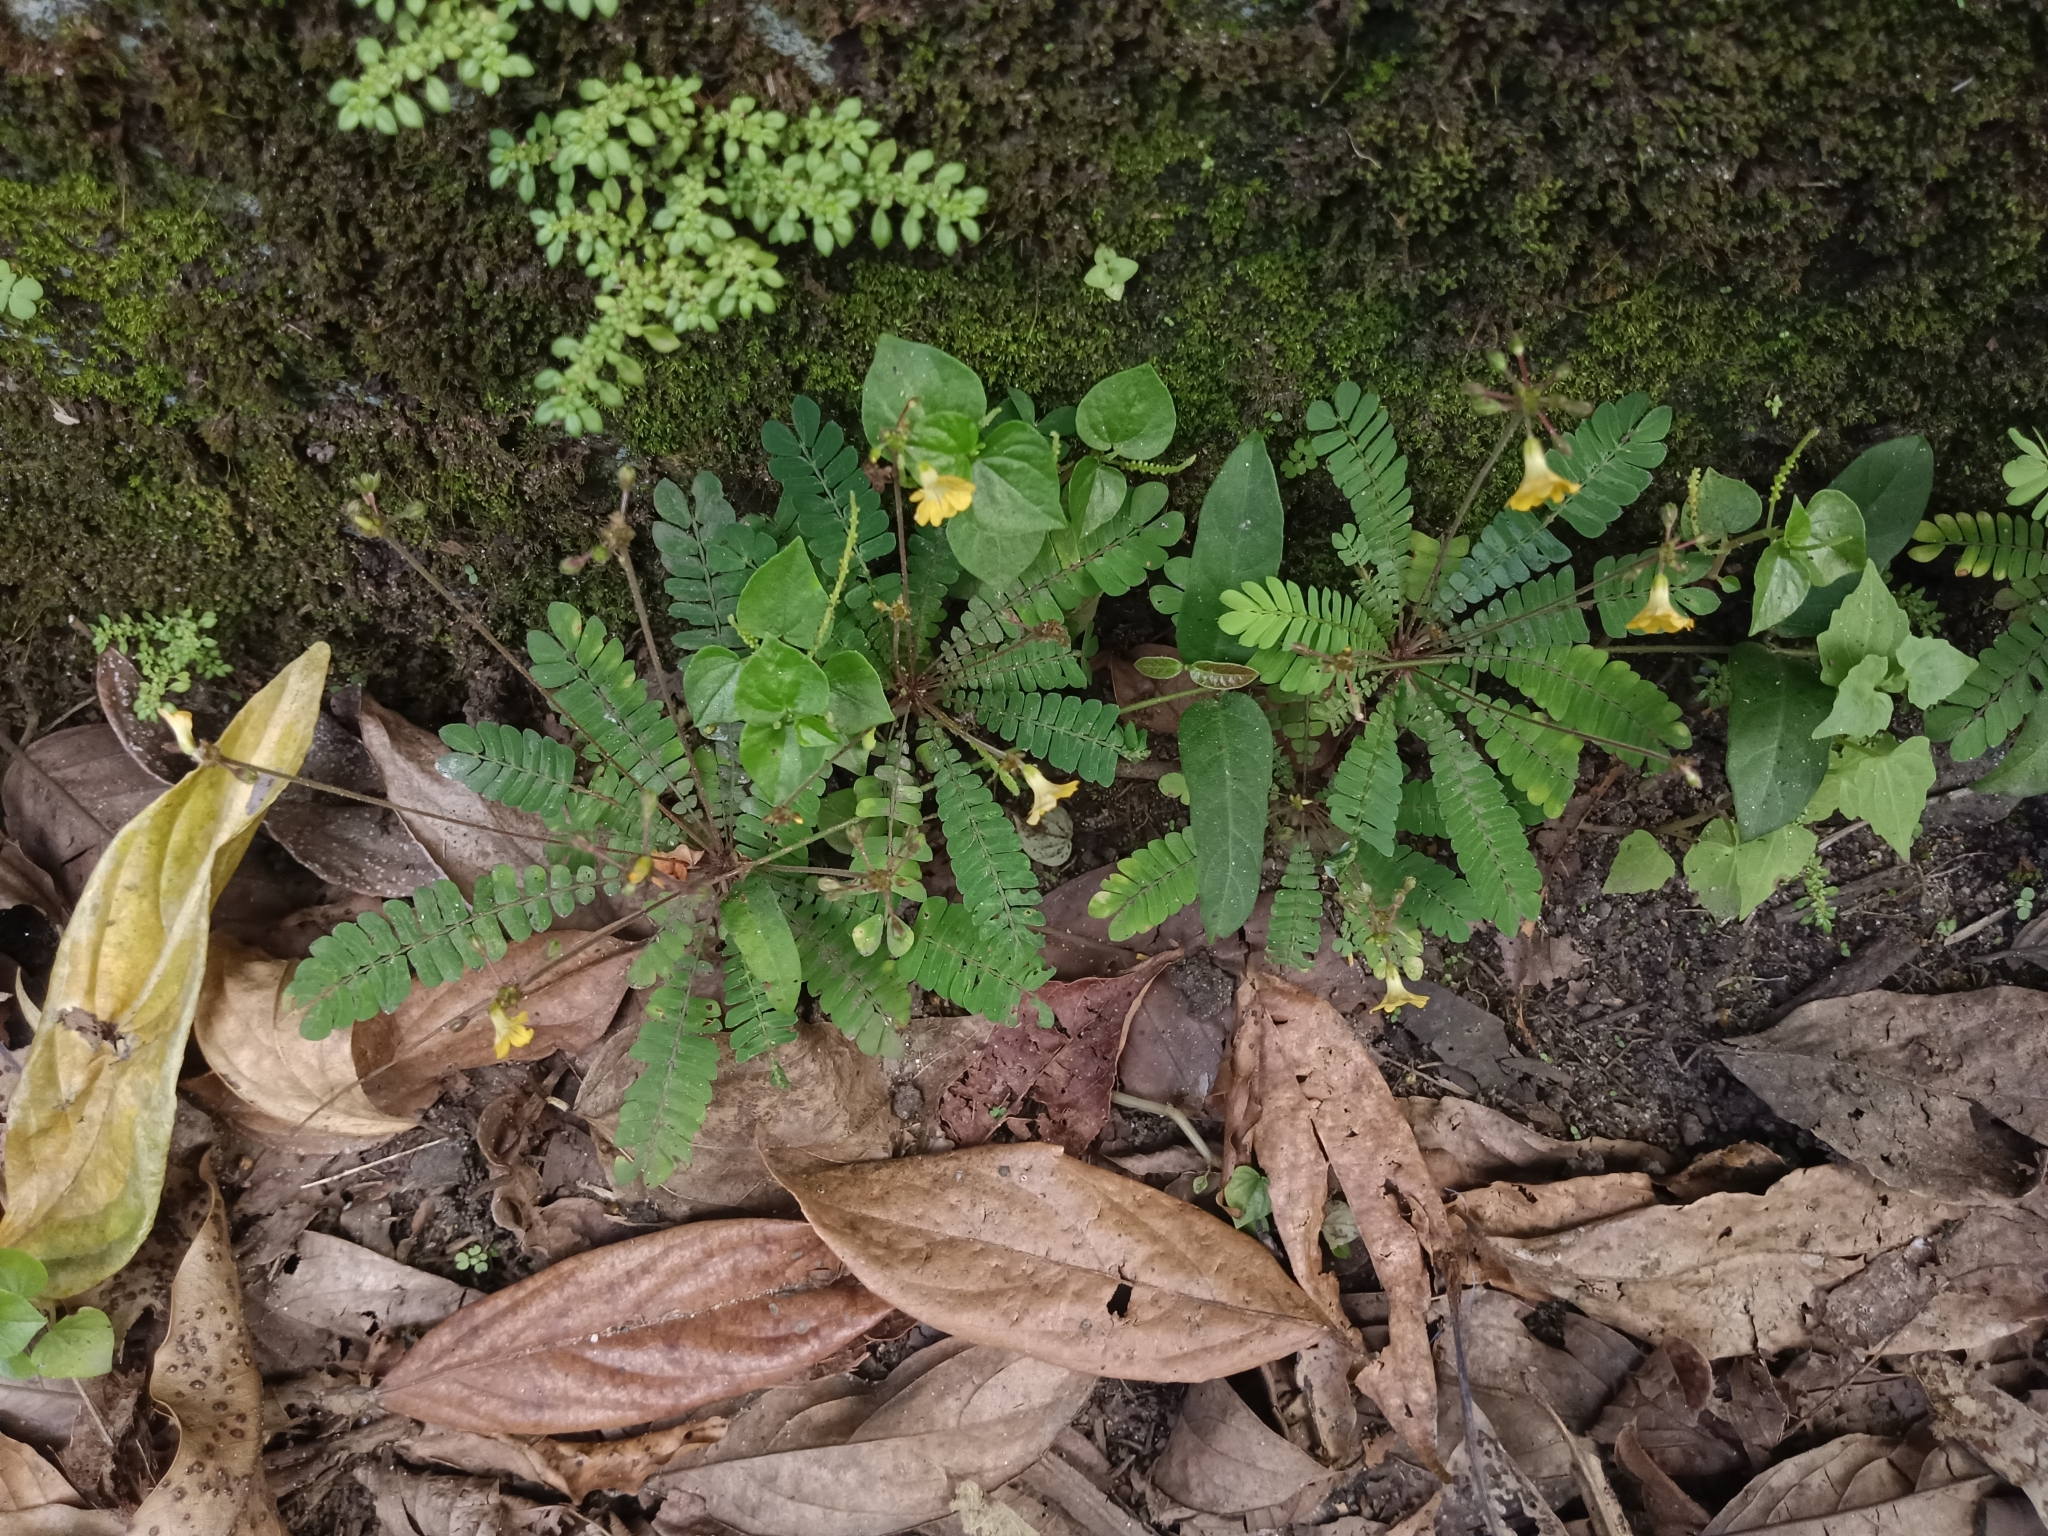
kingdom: Plantae
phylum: Tracheophyta
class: Magnoliopsida
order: Oxalidales
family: Oxalidaceae
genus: Biophytum
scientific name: Biophytum sensitivum
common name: Lifeplant
